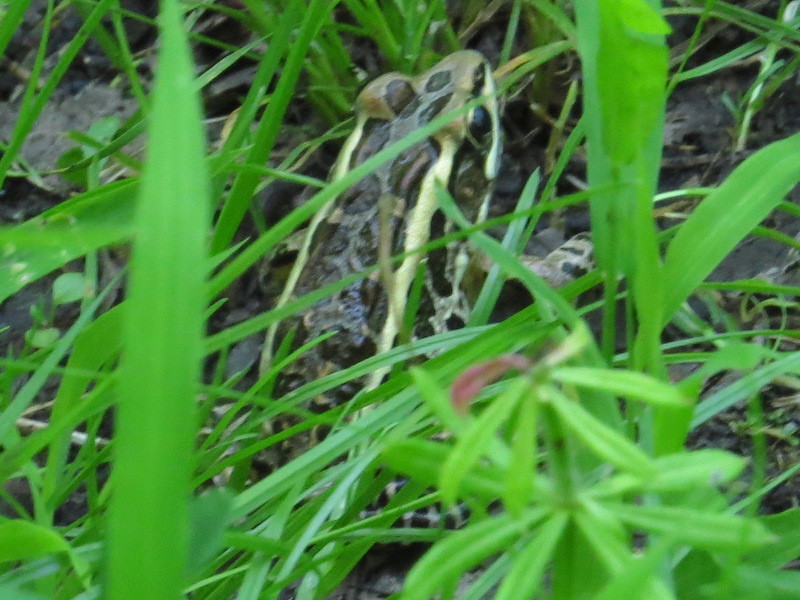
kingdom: Animalia
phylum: Chordata
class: Amphibia
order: Anura
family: Ranidae
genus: Lithobates
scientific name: Lithobates palustris
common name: Pickerel frog
